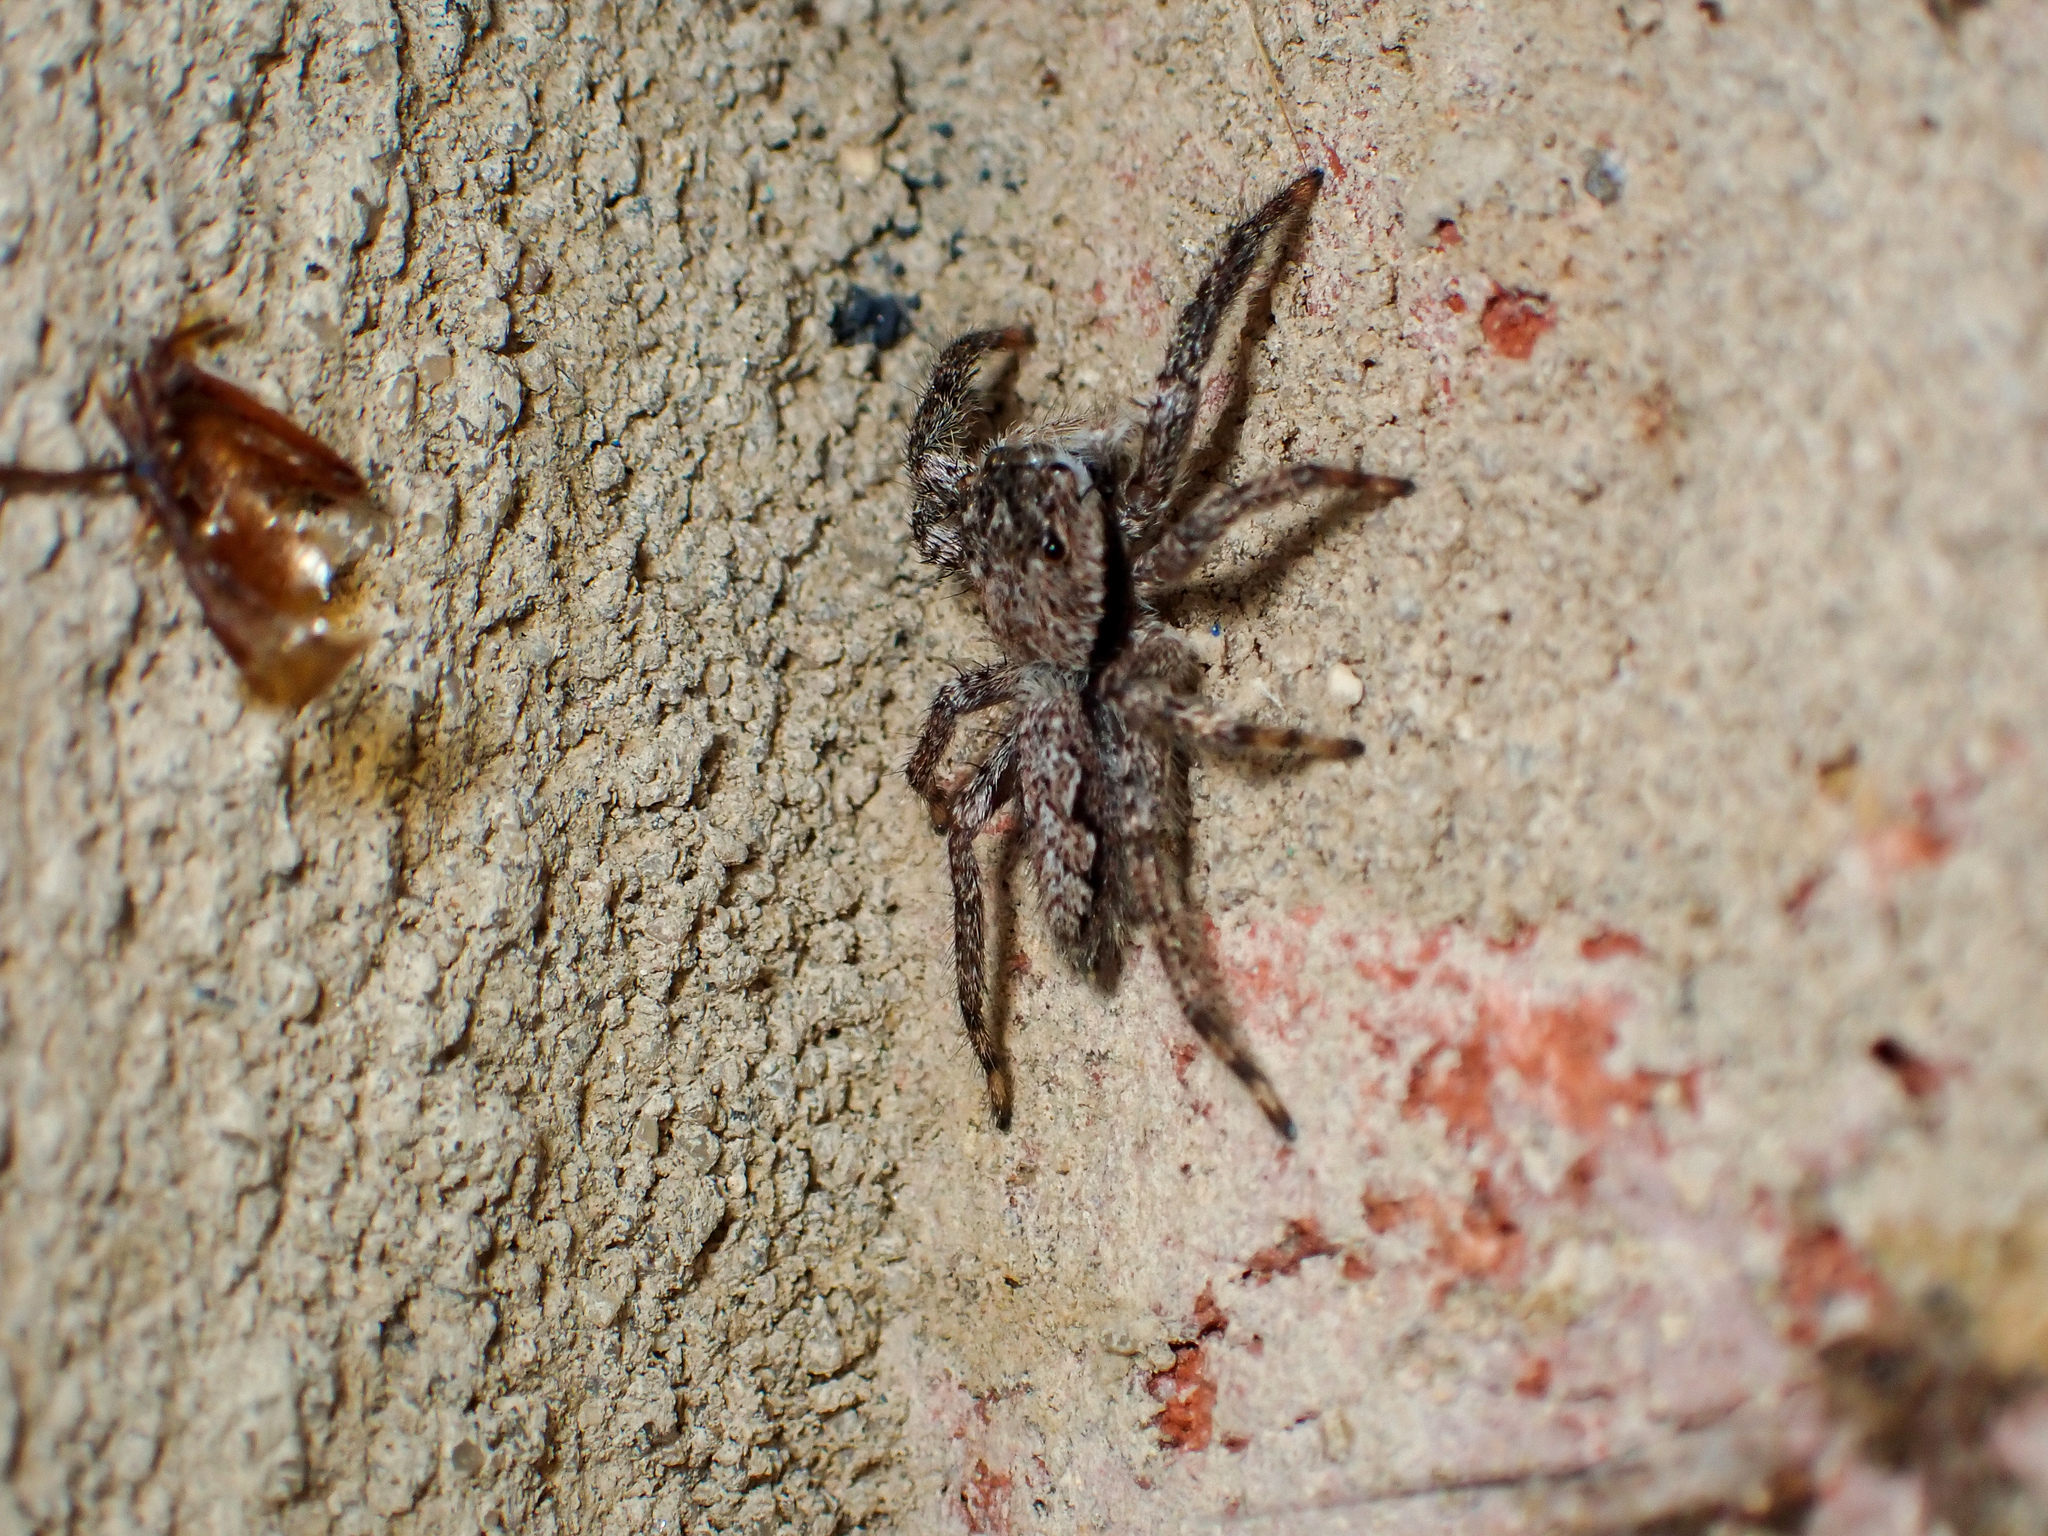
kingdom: Animalia
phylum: Arthropoda
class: Arachnida
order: Araneae
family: Salticidae
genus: Platycryptus
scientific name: Platycryptus undatus
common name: Tan jumping spider
